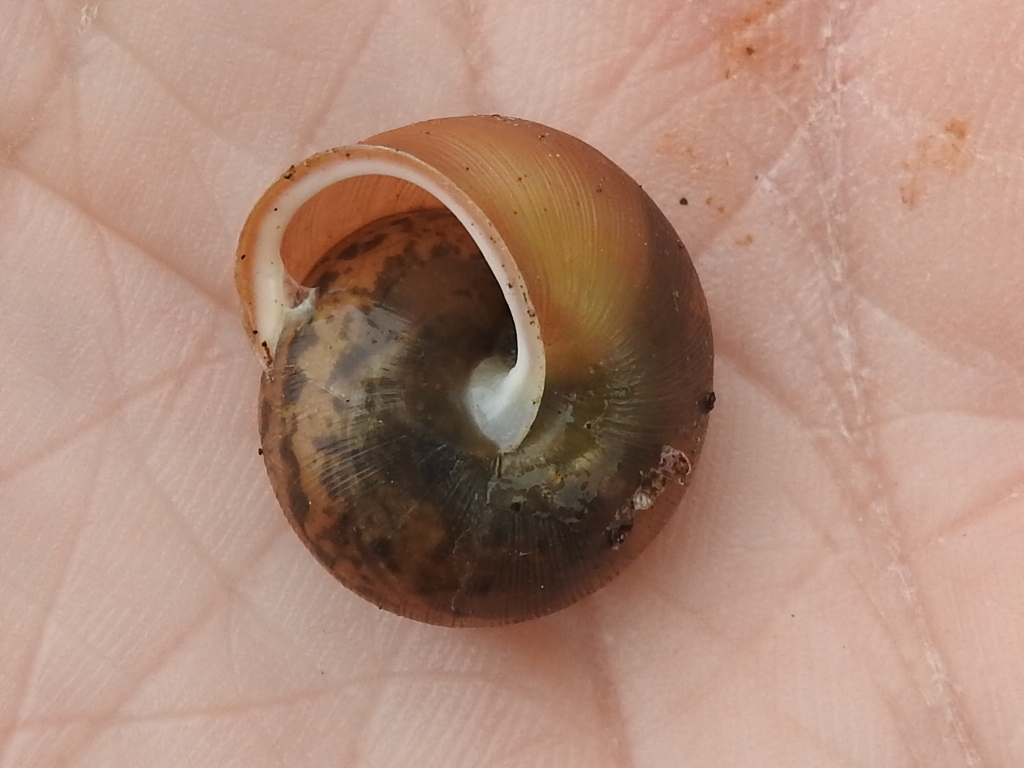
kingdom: Animalia
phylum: Mollusca
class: Gastropoda
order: Stylommatophora
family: Polygyridae
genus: Mesodon
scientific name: Mesodon thyroidus
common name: White-lip globe
